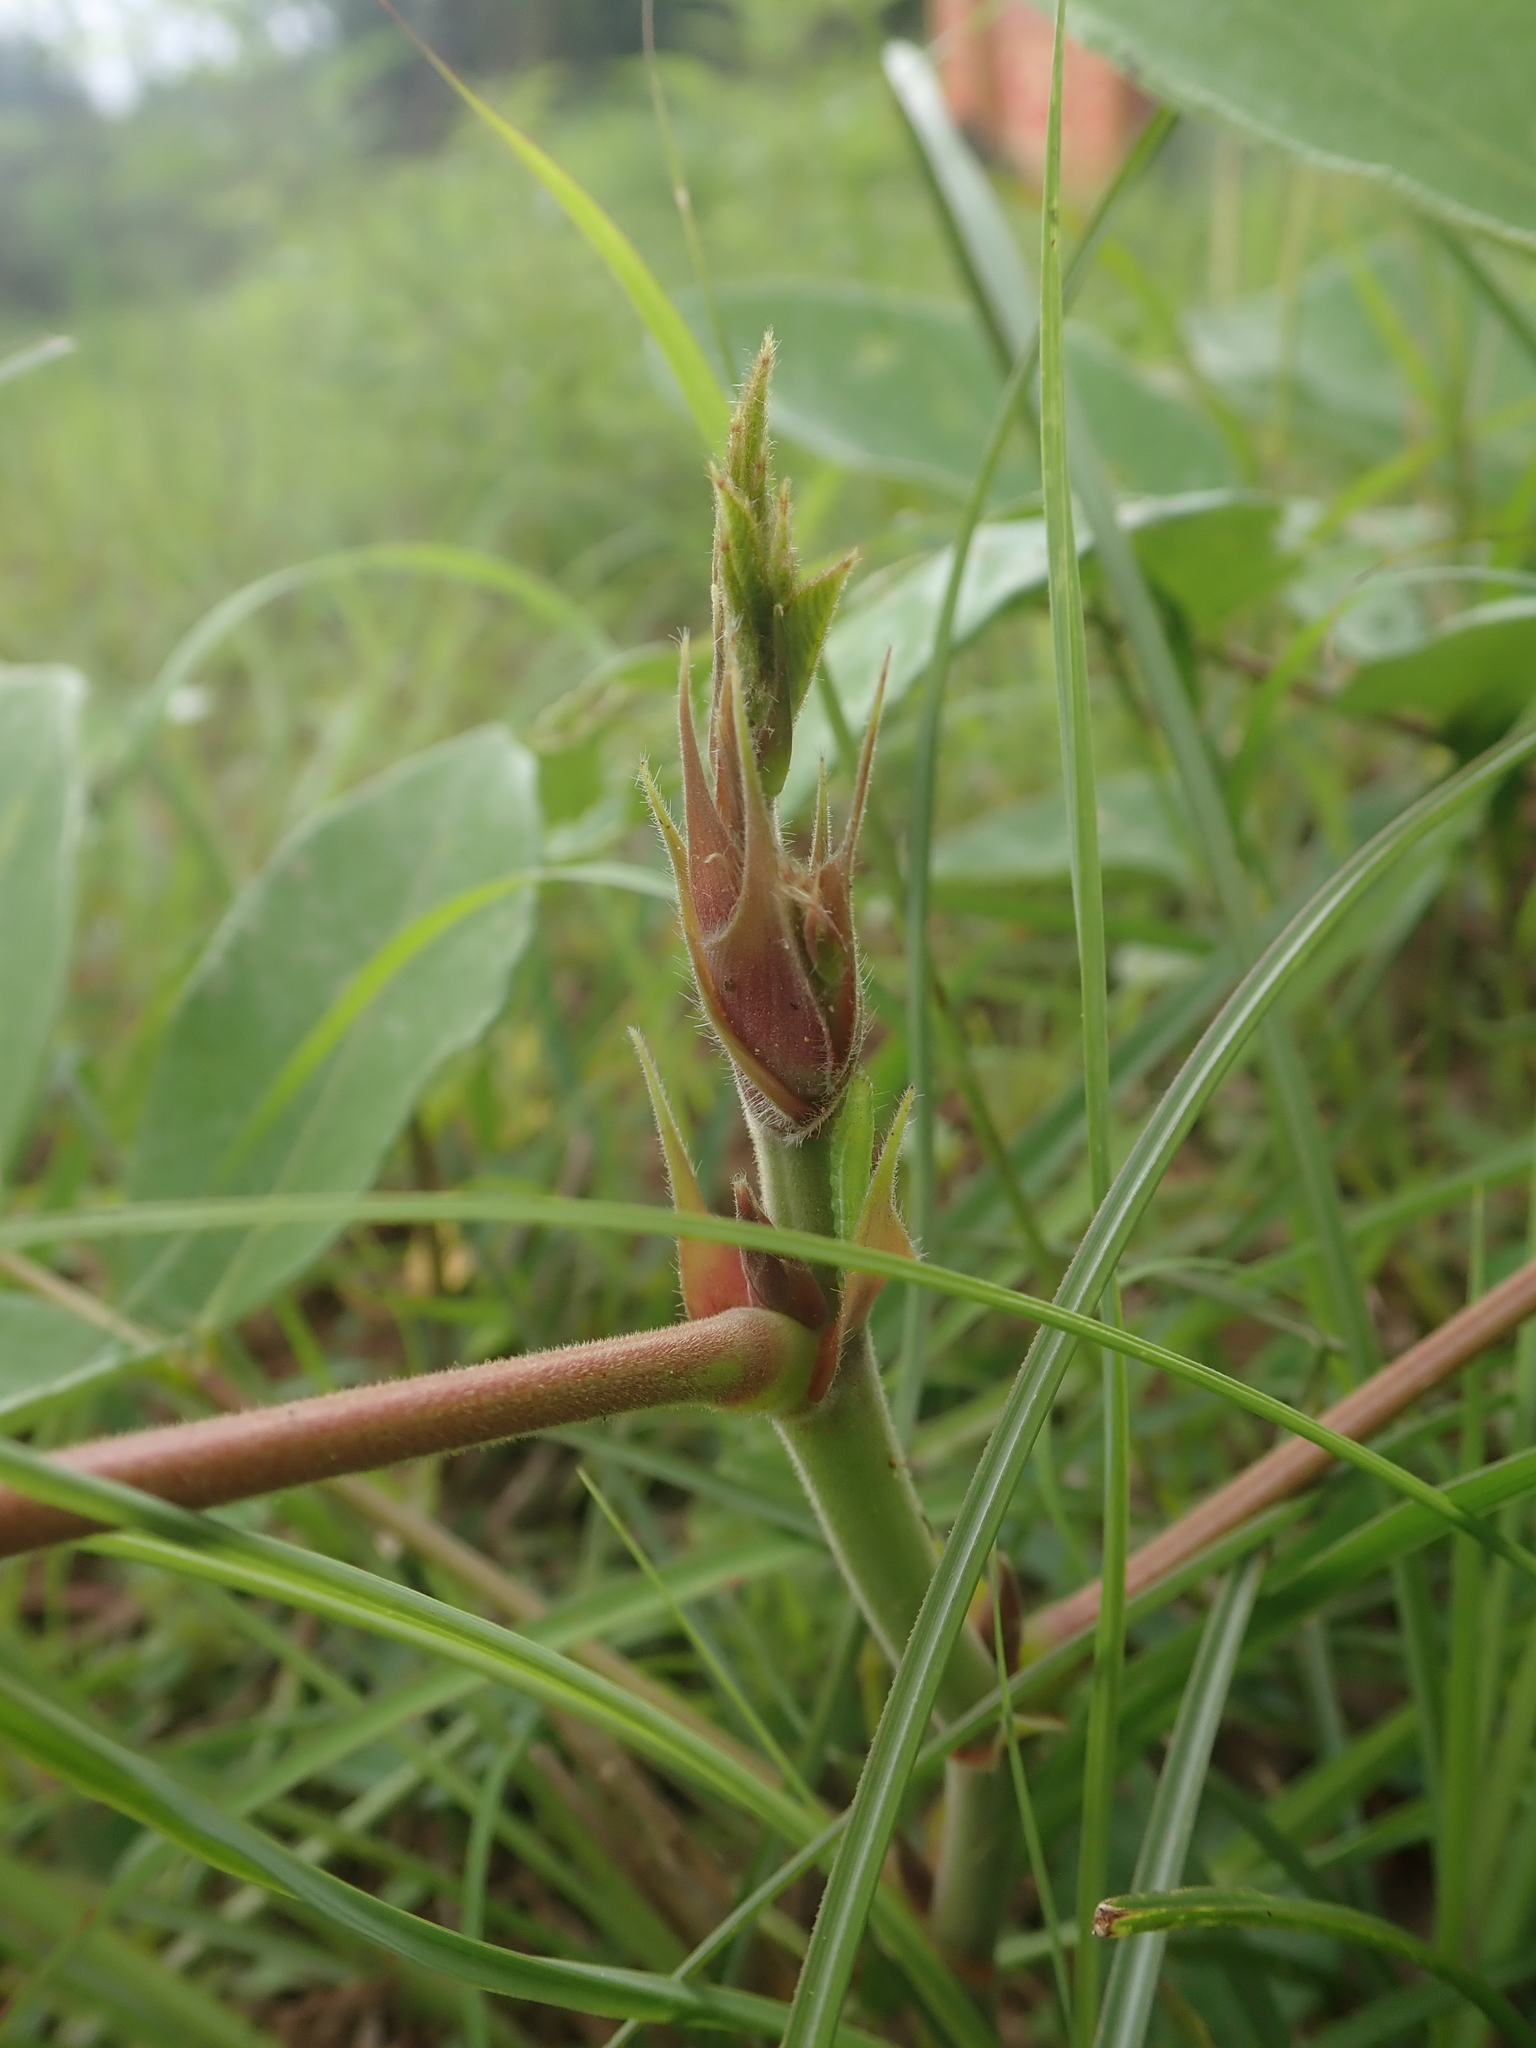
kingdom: Plantae
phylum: Tracheophyta
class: Magnoliopsida
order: Fabales
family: Fabaceae
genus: Uraria
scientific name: Uraria crinita
